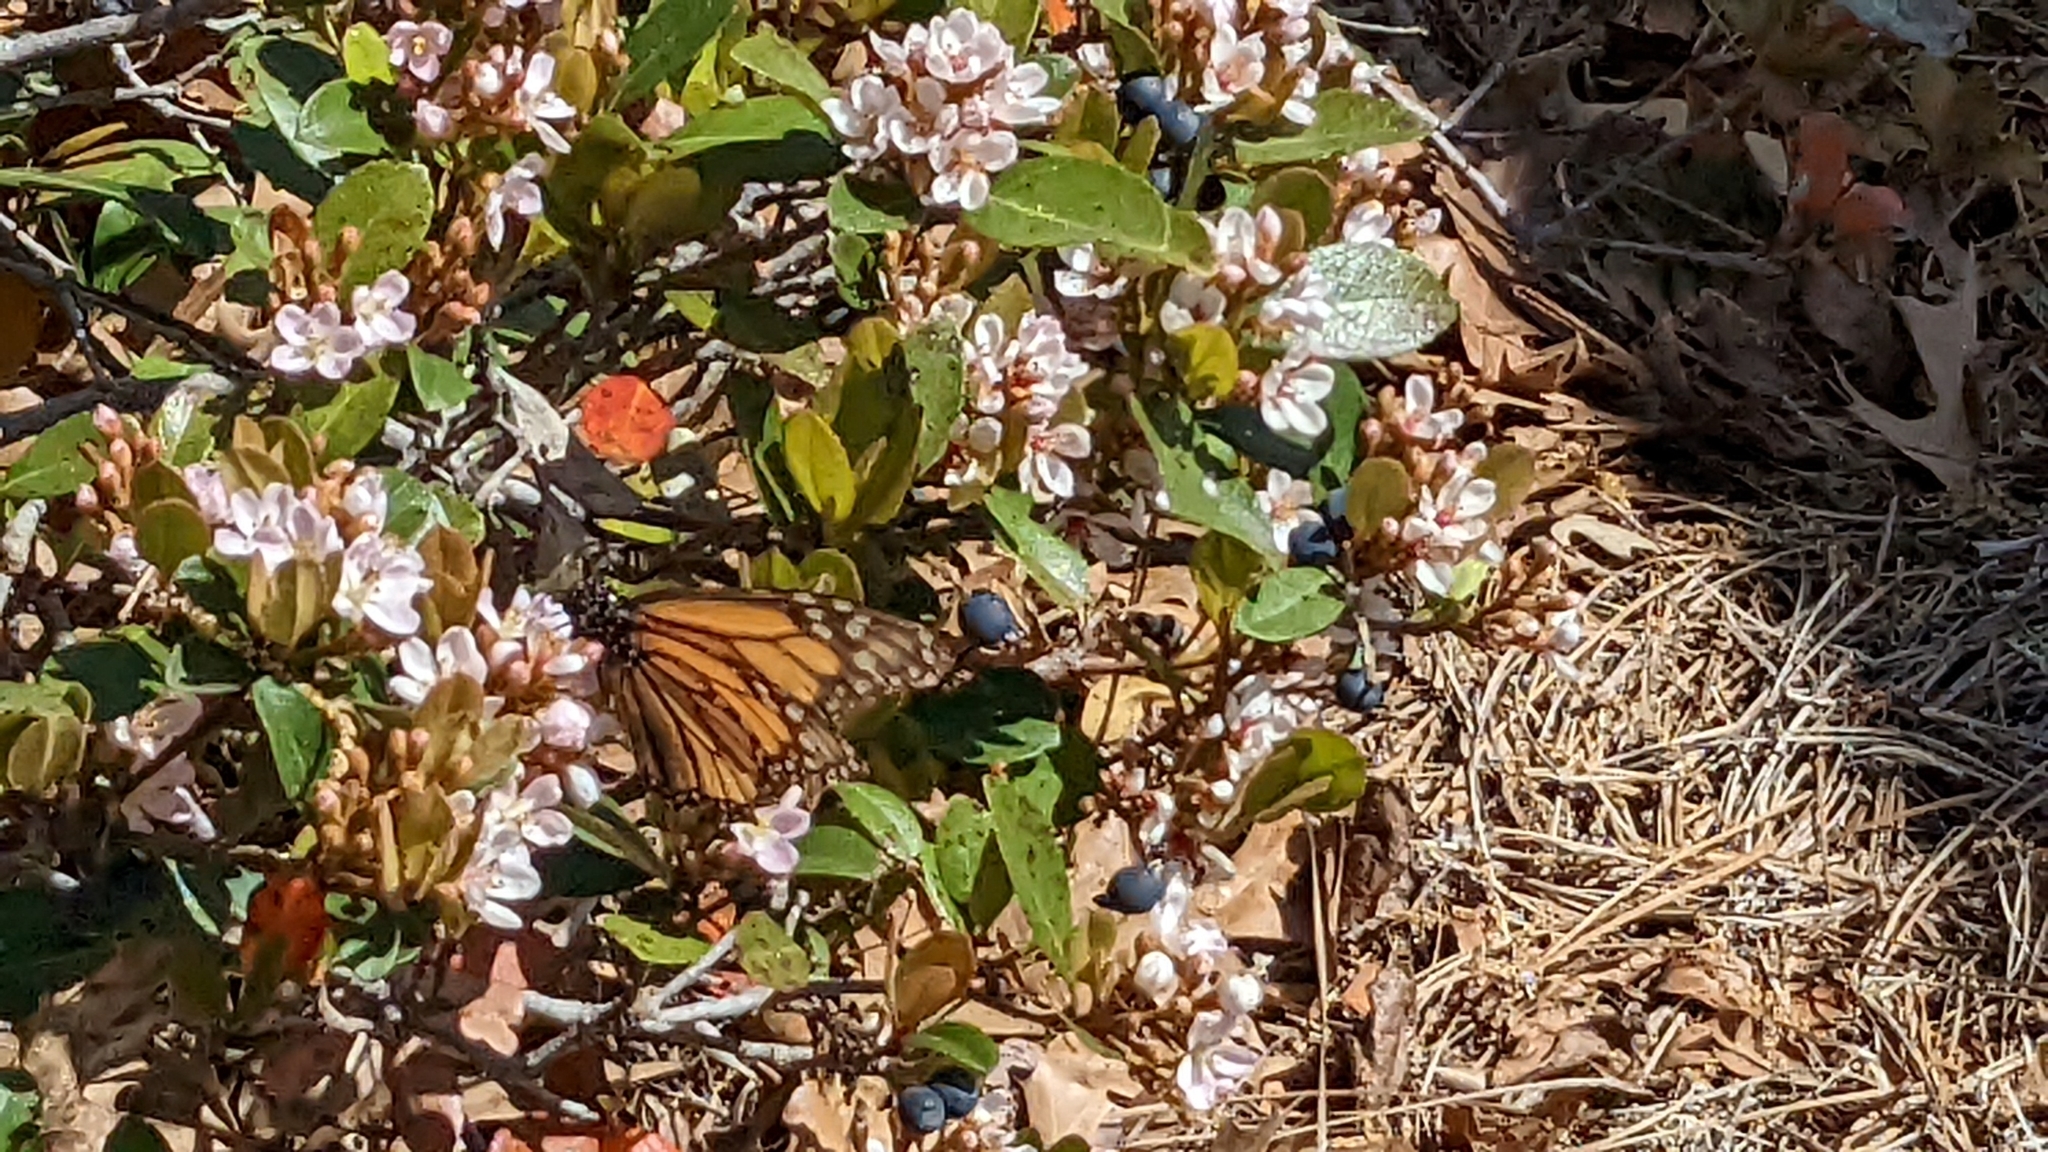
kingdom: Animalia
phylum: Arthropoda
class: Insecta
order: Lepidoptera
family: Nymphalidae
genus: Danaus
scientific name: Danaus plexippus
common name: Monarch
